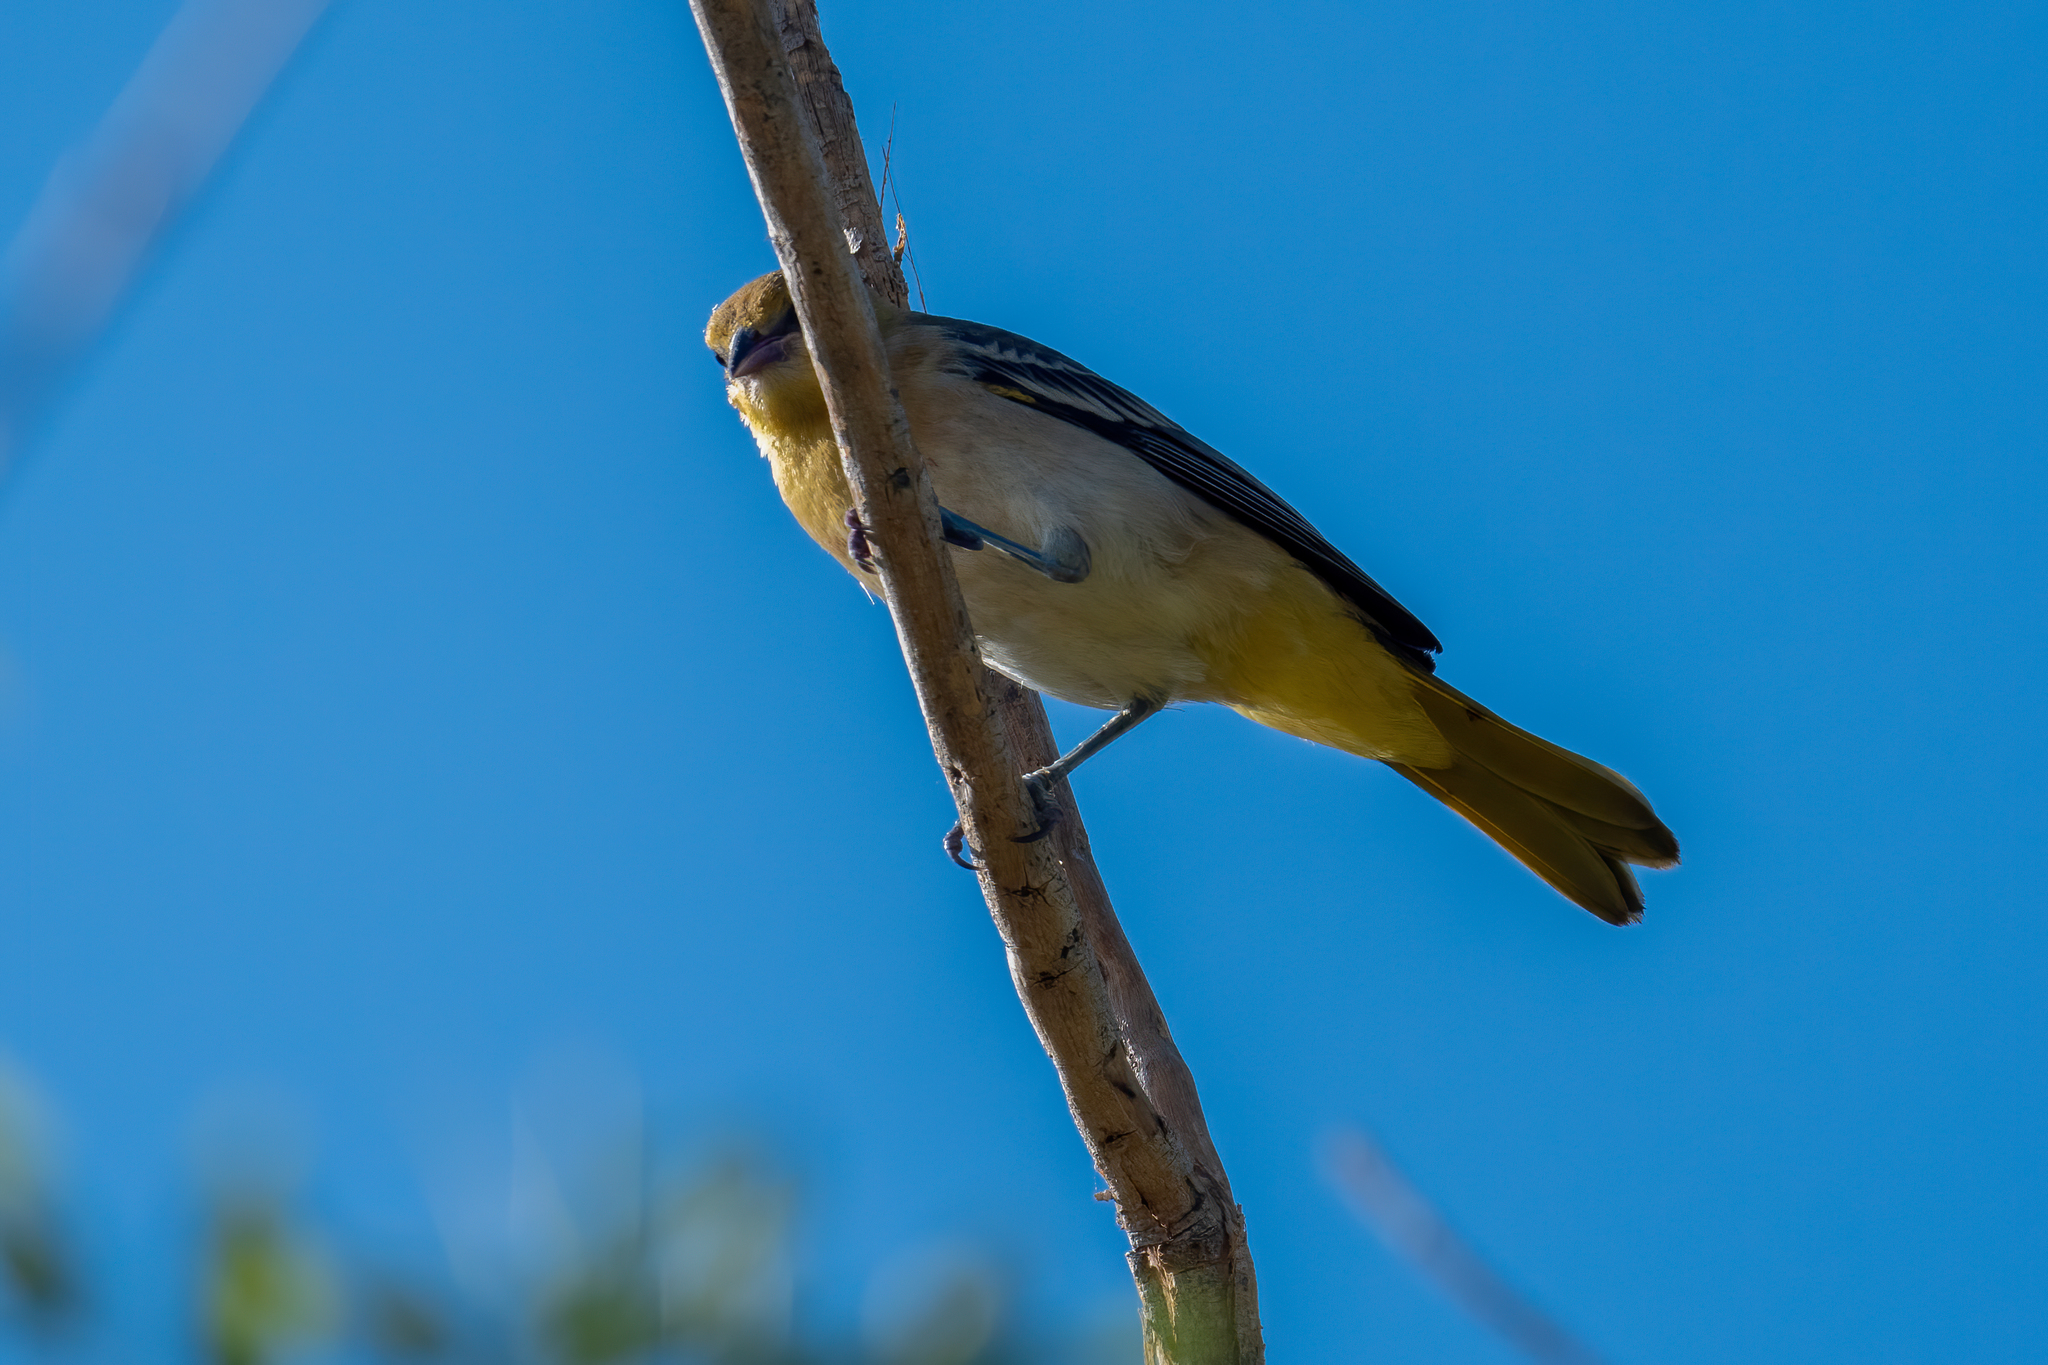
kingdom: Animalia
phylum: Chordata
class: Aves
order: Passeriformes
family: Icteridae
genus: Icterus
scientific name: Icterus bullockii
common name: Bullock's oriole
